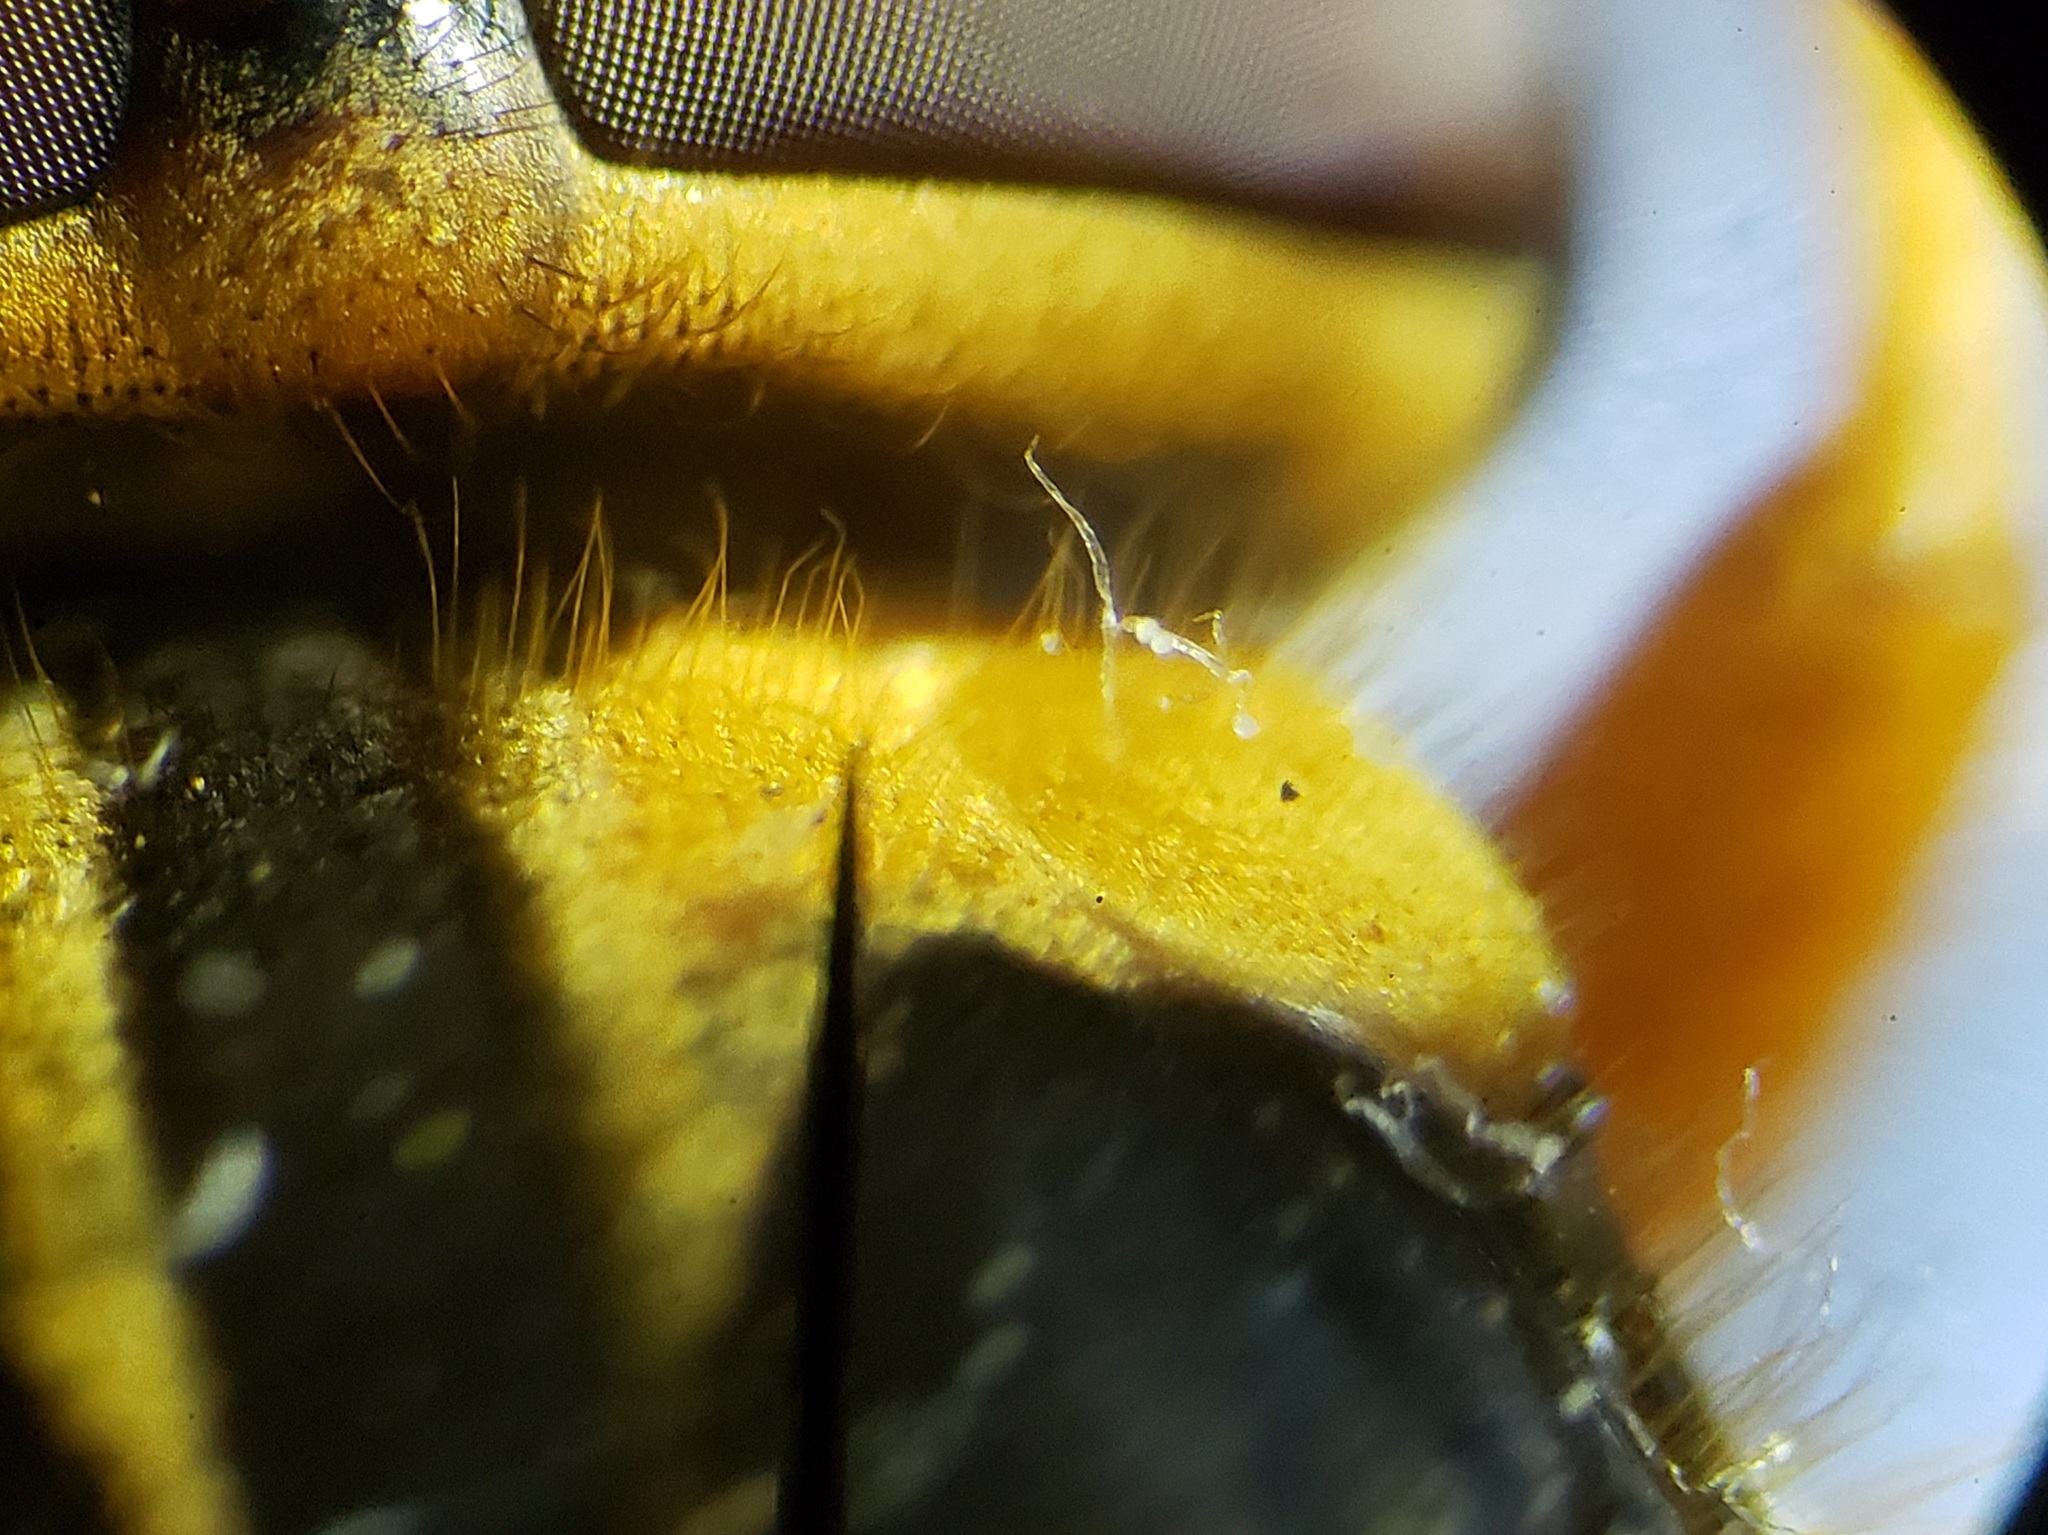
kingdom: Animalia
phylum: Arthropoda
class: Insecta
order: Diptera
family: Syrphidae
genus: Milesia
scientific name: Milesia virginiensis
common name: Virginia giant
